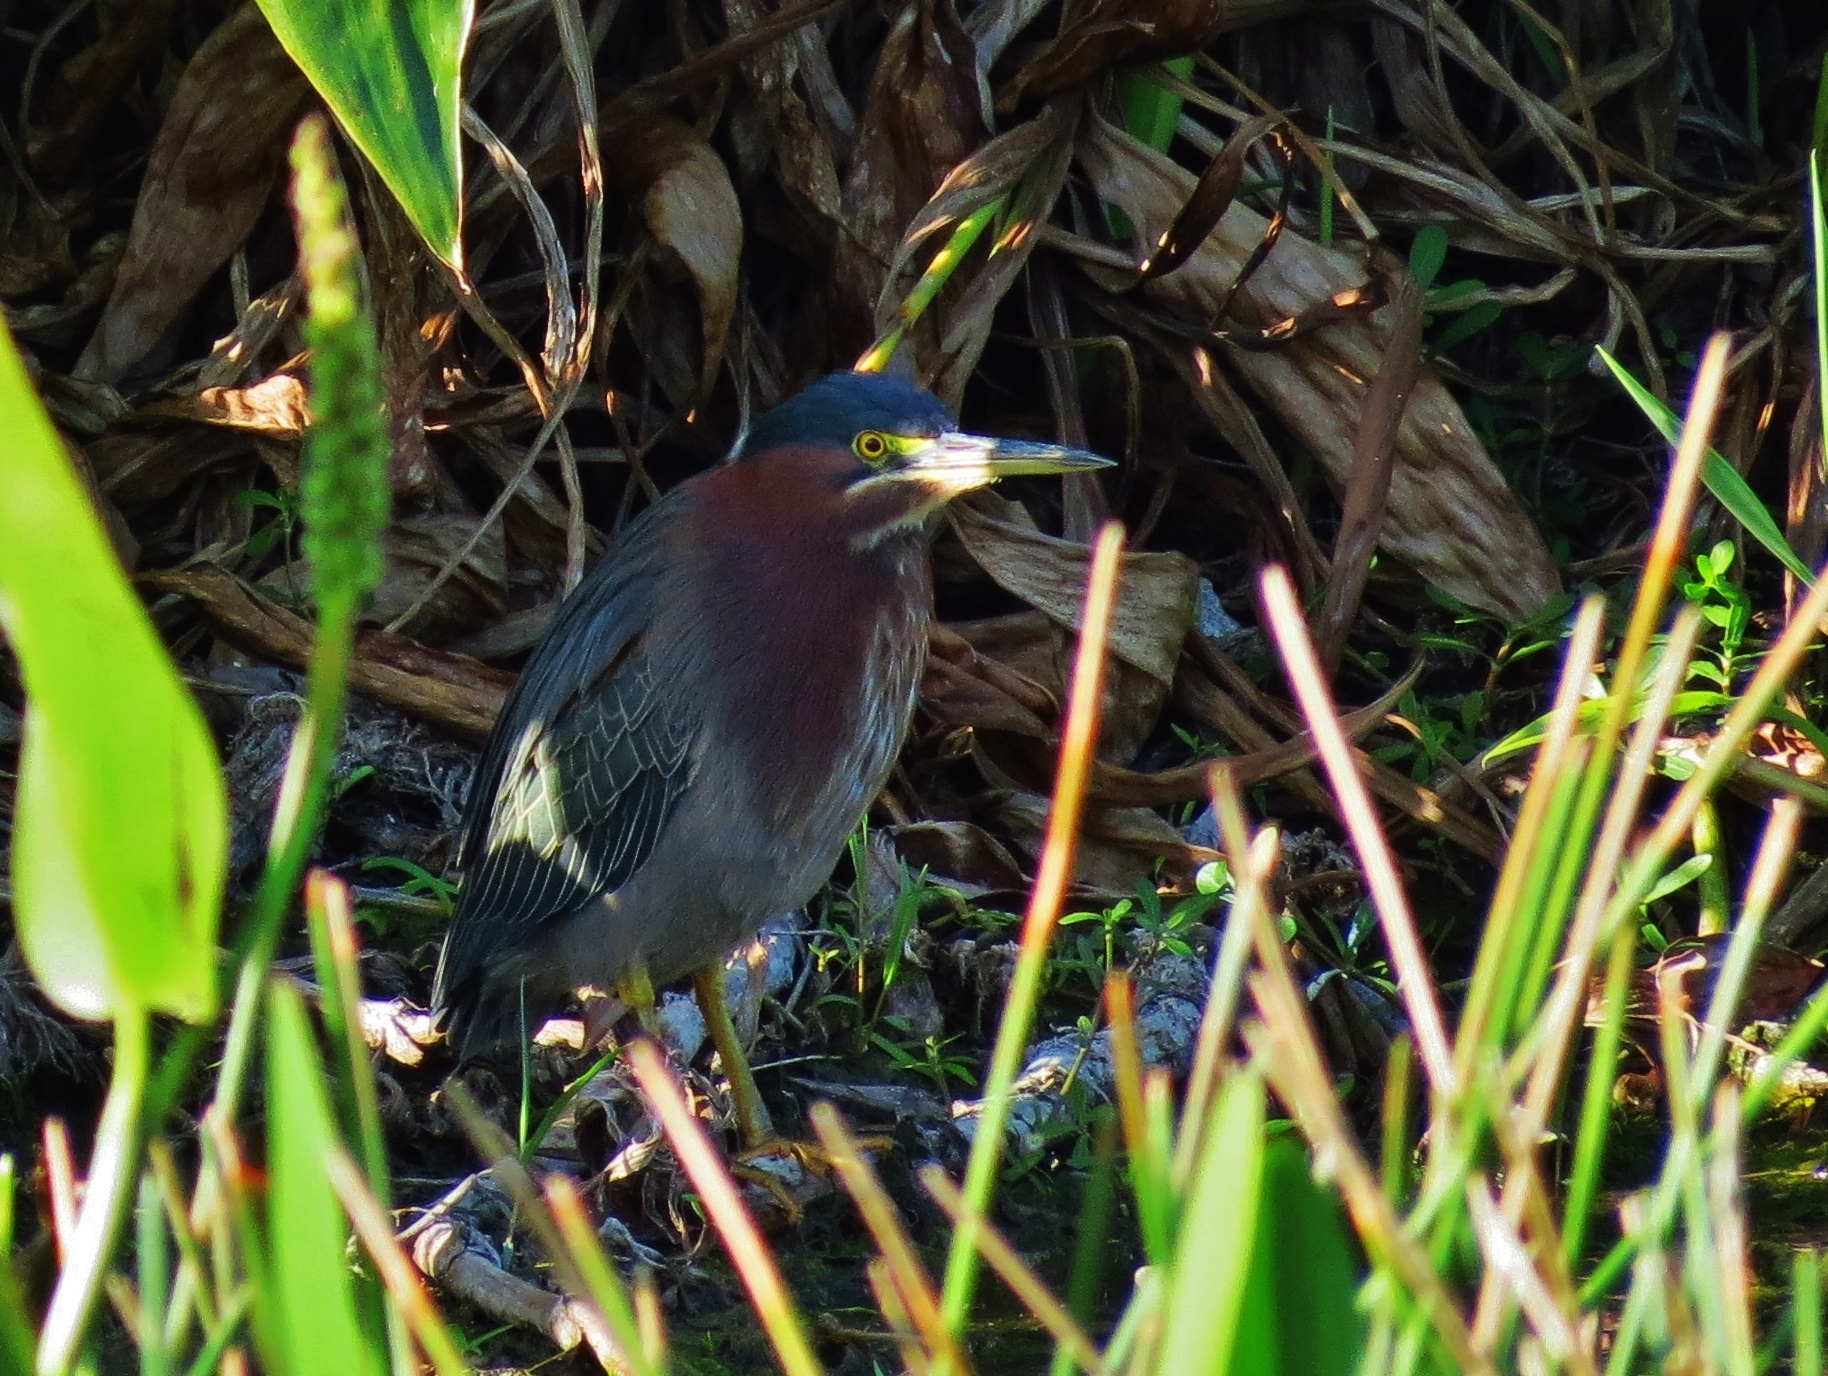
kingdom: Animalia
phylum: Chordata
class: Aves
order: Pelecaniformes
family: Ardeidae
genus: Butorides
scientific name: Butorides virescens
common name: Green heron
